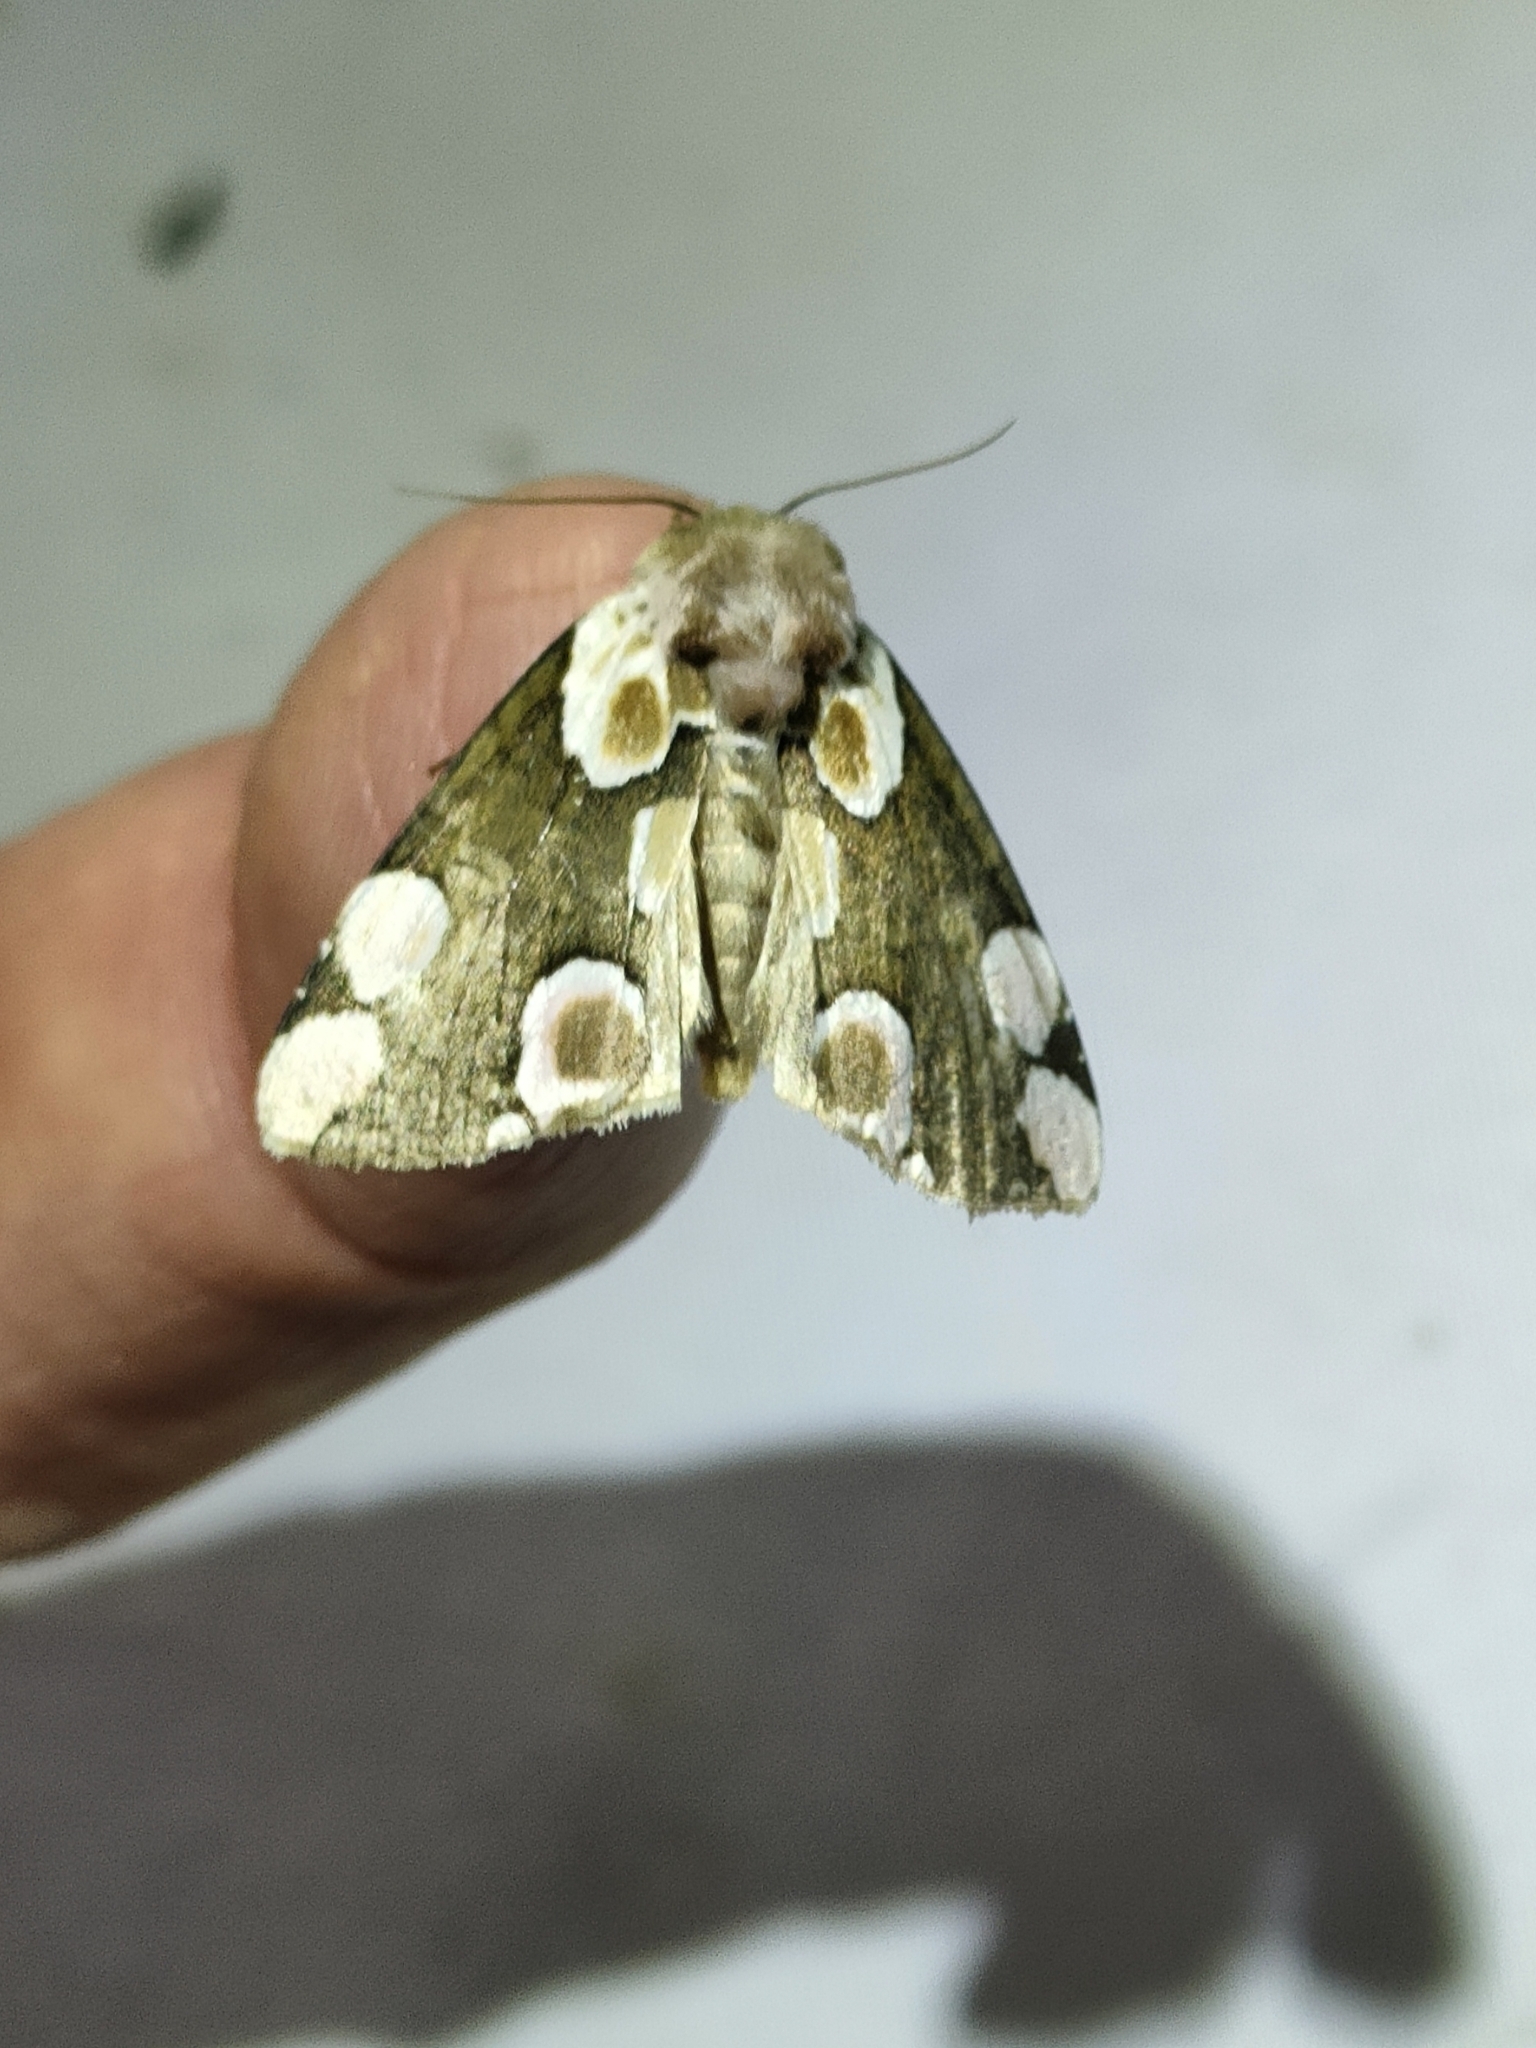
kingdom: Animalia
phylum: Arthropoda
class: Insecta
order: Lepidoptera
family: Drepanidae
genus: Thyatira
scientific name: Thyatira batis
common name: Peach blossom
